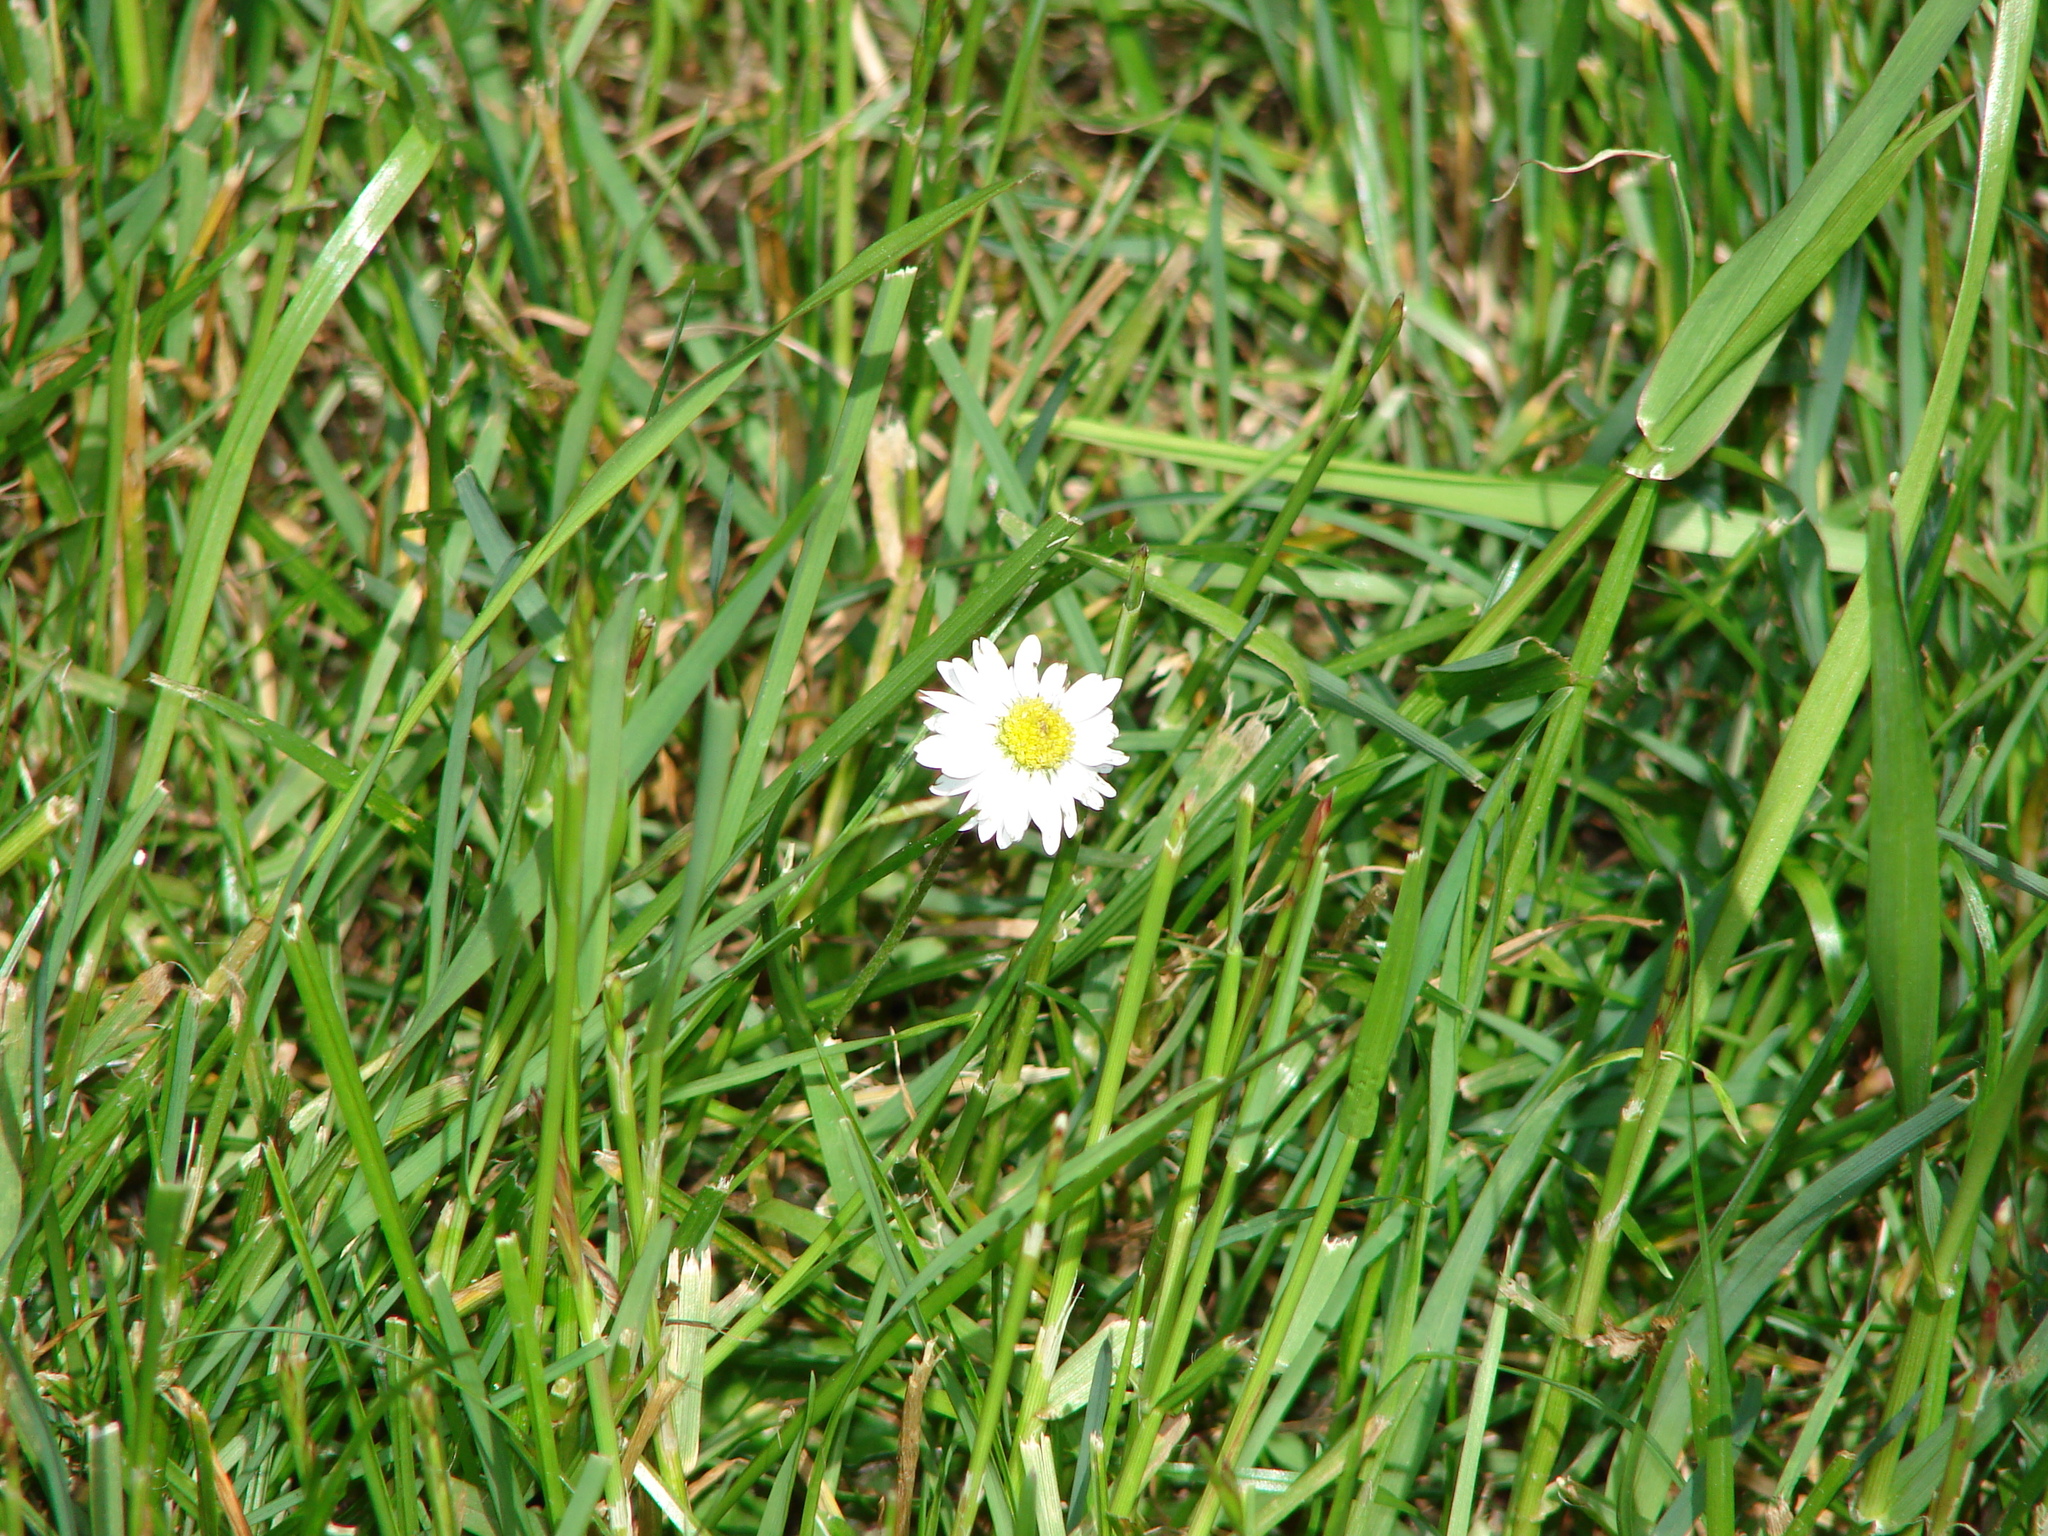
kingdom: Plantae
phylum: Tracheophyta
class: Magnoliopsida
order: Asterales
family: Asteraceae
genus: Bellis
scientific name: Bellis perennis
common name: Lawndaisy
